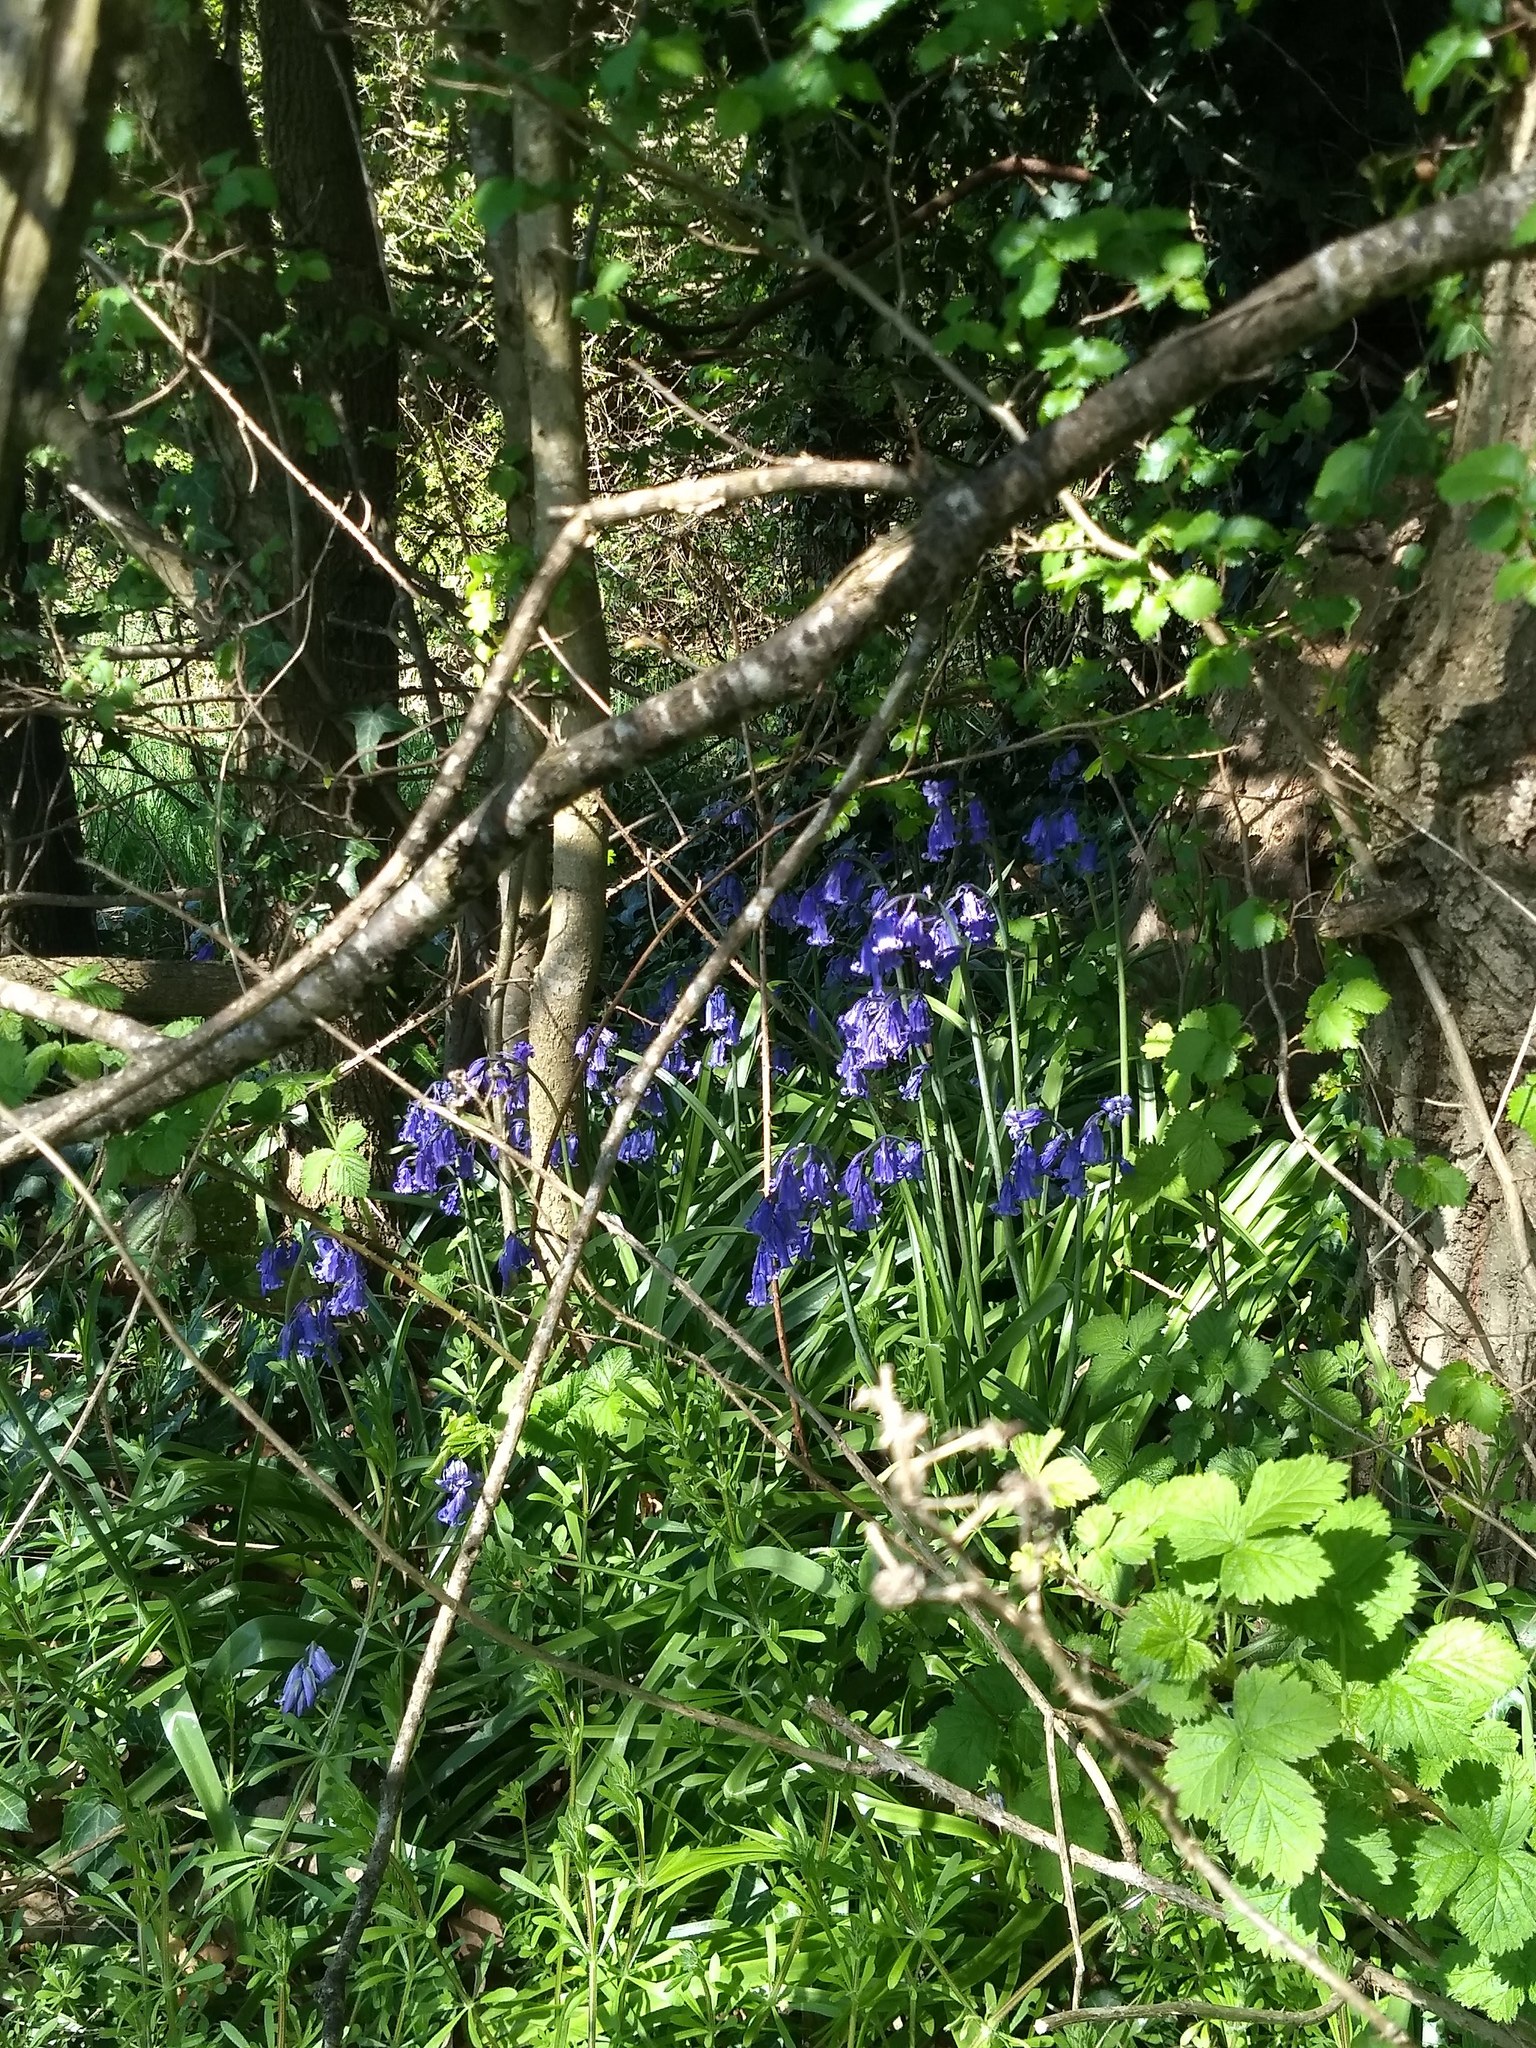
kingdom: Plantae
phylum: Tracheophyta
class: Liliopsida
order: Asparagales
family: Asparagaceae
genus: Hyacinthoides
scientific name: Hyacinthoides non-scripta
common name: Bluebell
